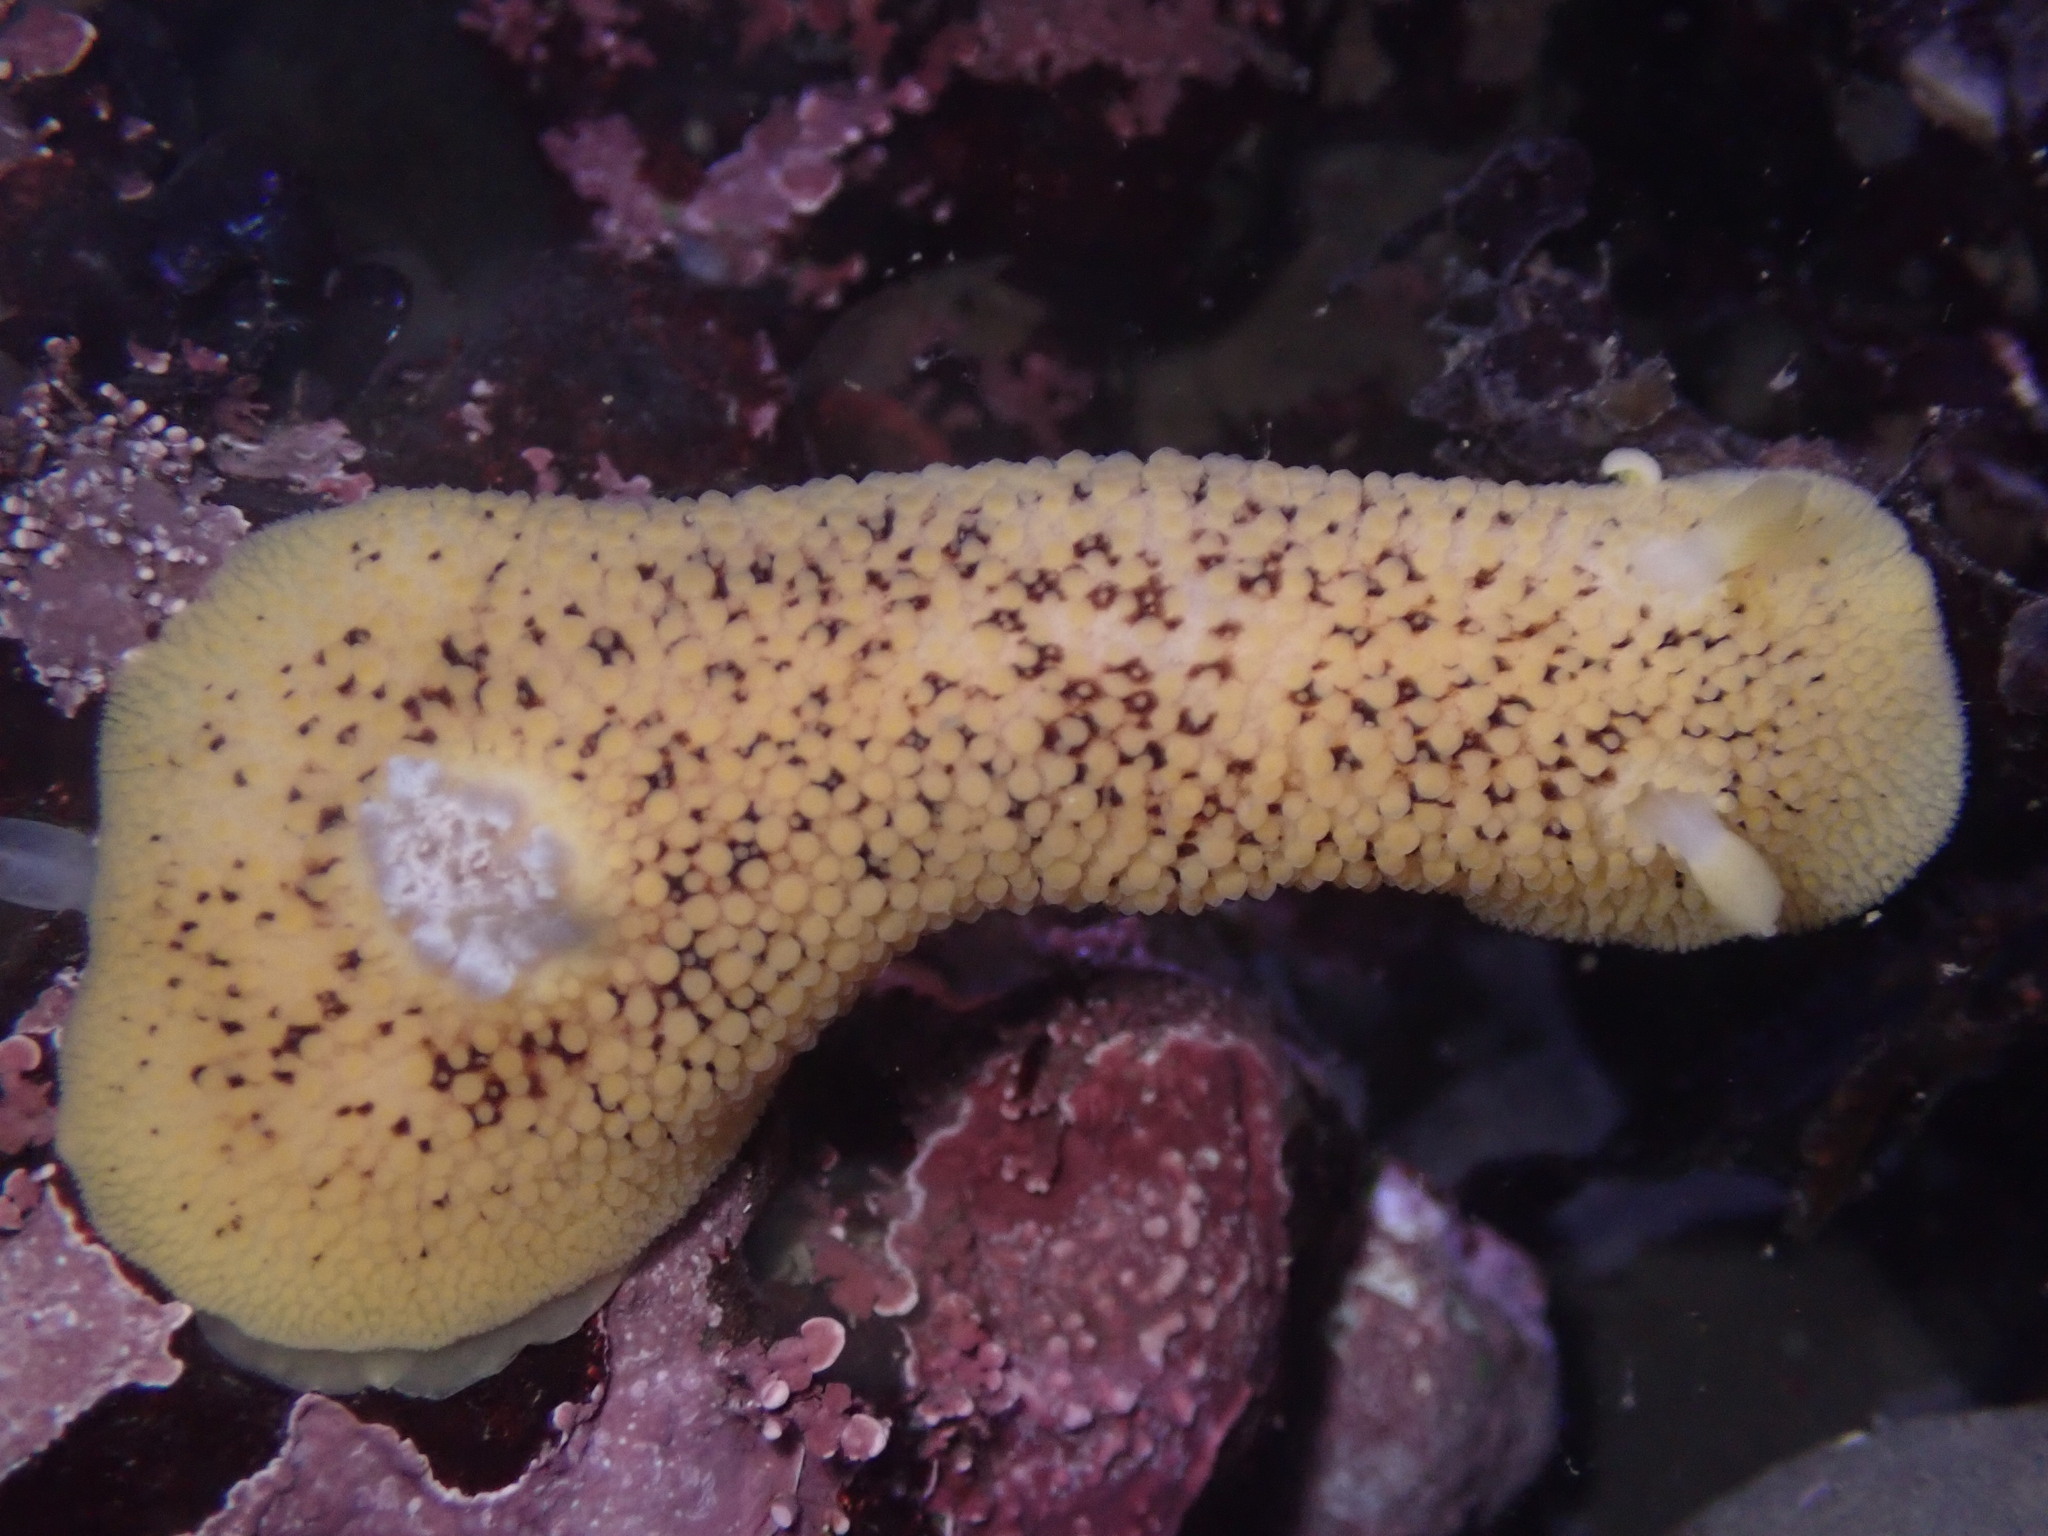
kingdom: Animalia
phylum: Mollusca
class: Gastropoda
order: Nudibranchia
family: Discodorididae
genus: Peltodoris
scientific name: Peltodoris nobilis
